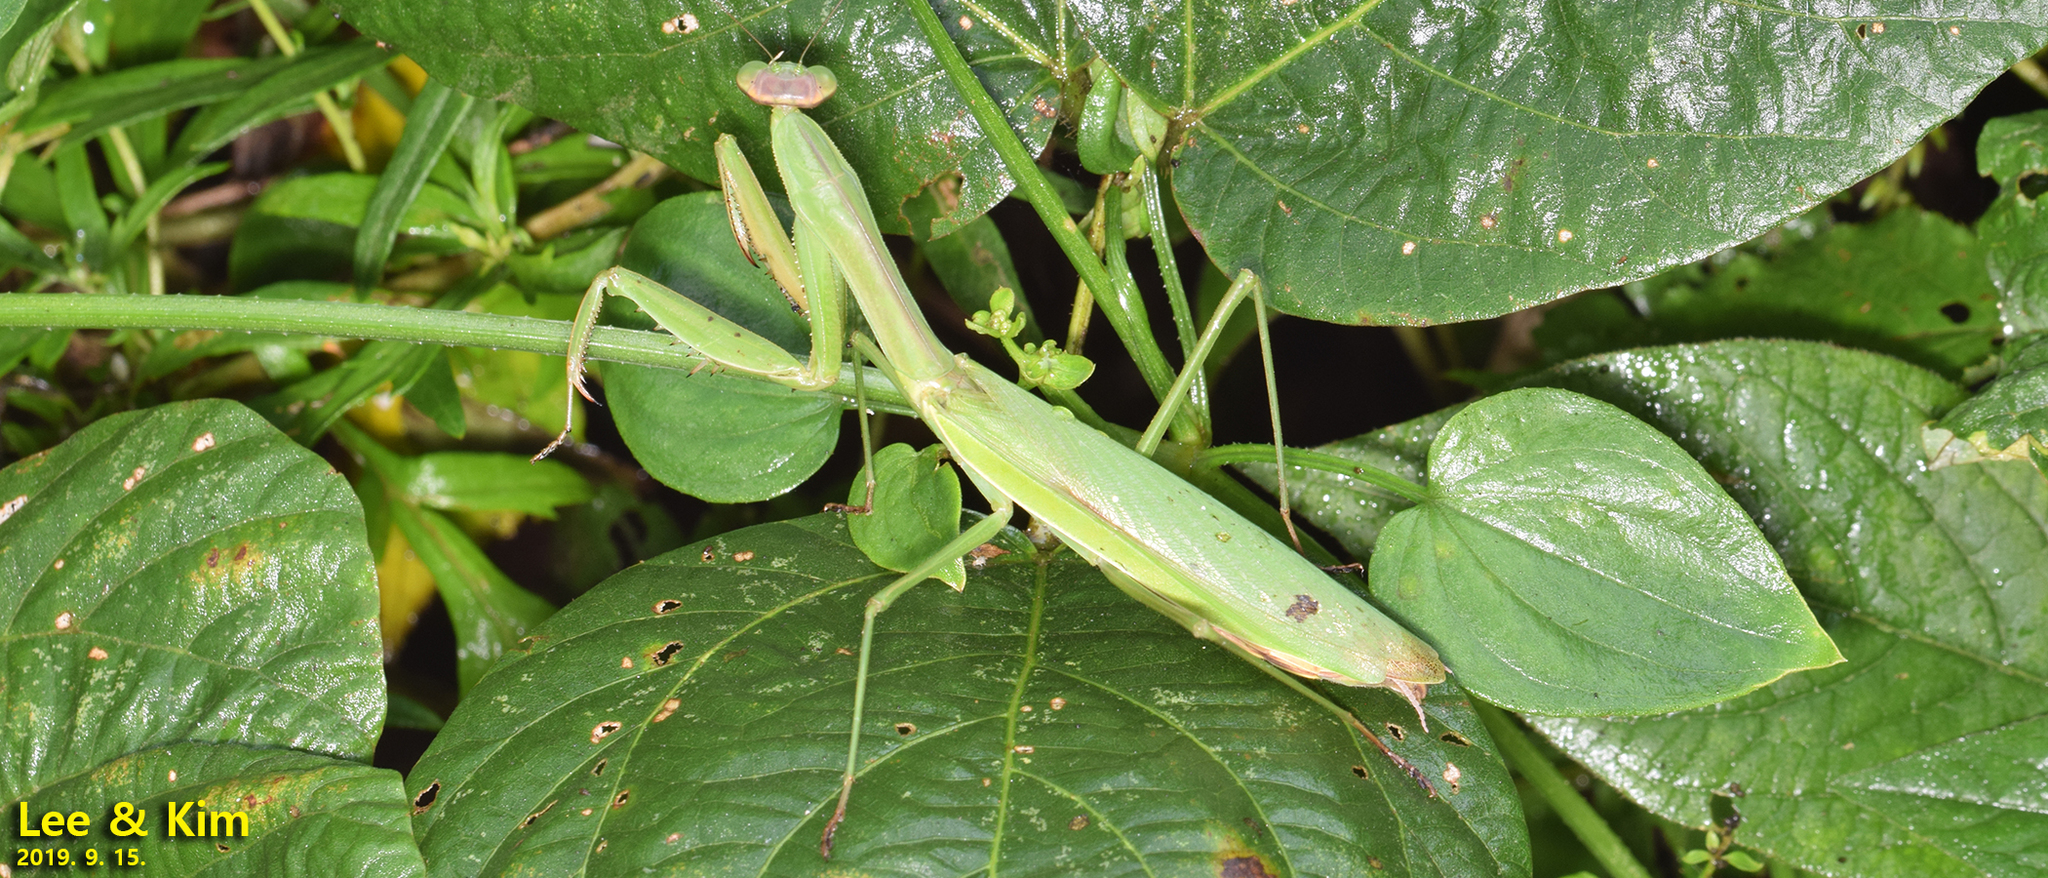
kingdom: Animalia
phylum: Arthropoda
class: Insecta
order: Mantodea
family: Mantidae
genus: Tenodera
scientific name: Tenodera sinensis
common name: Chinese mantis
